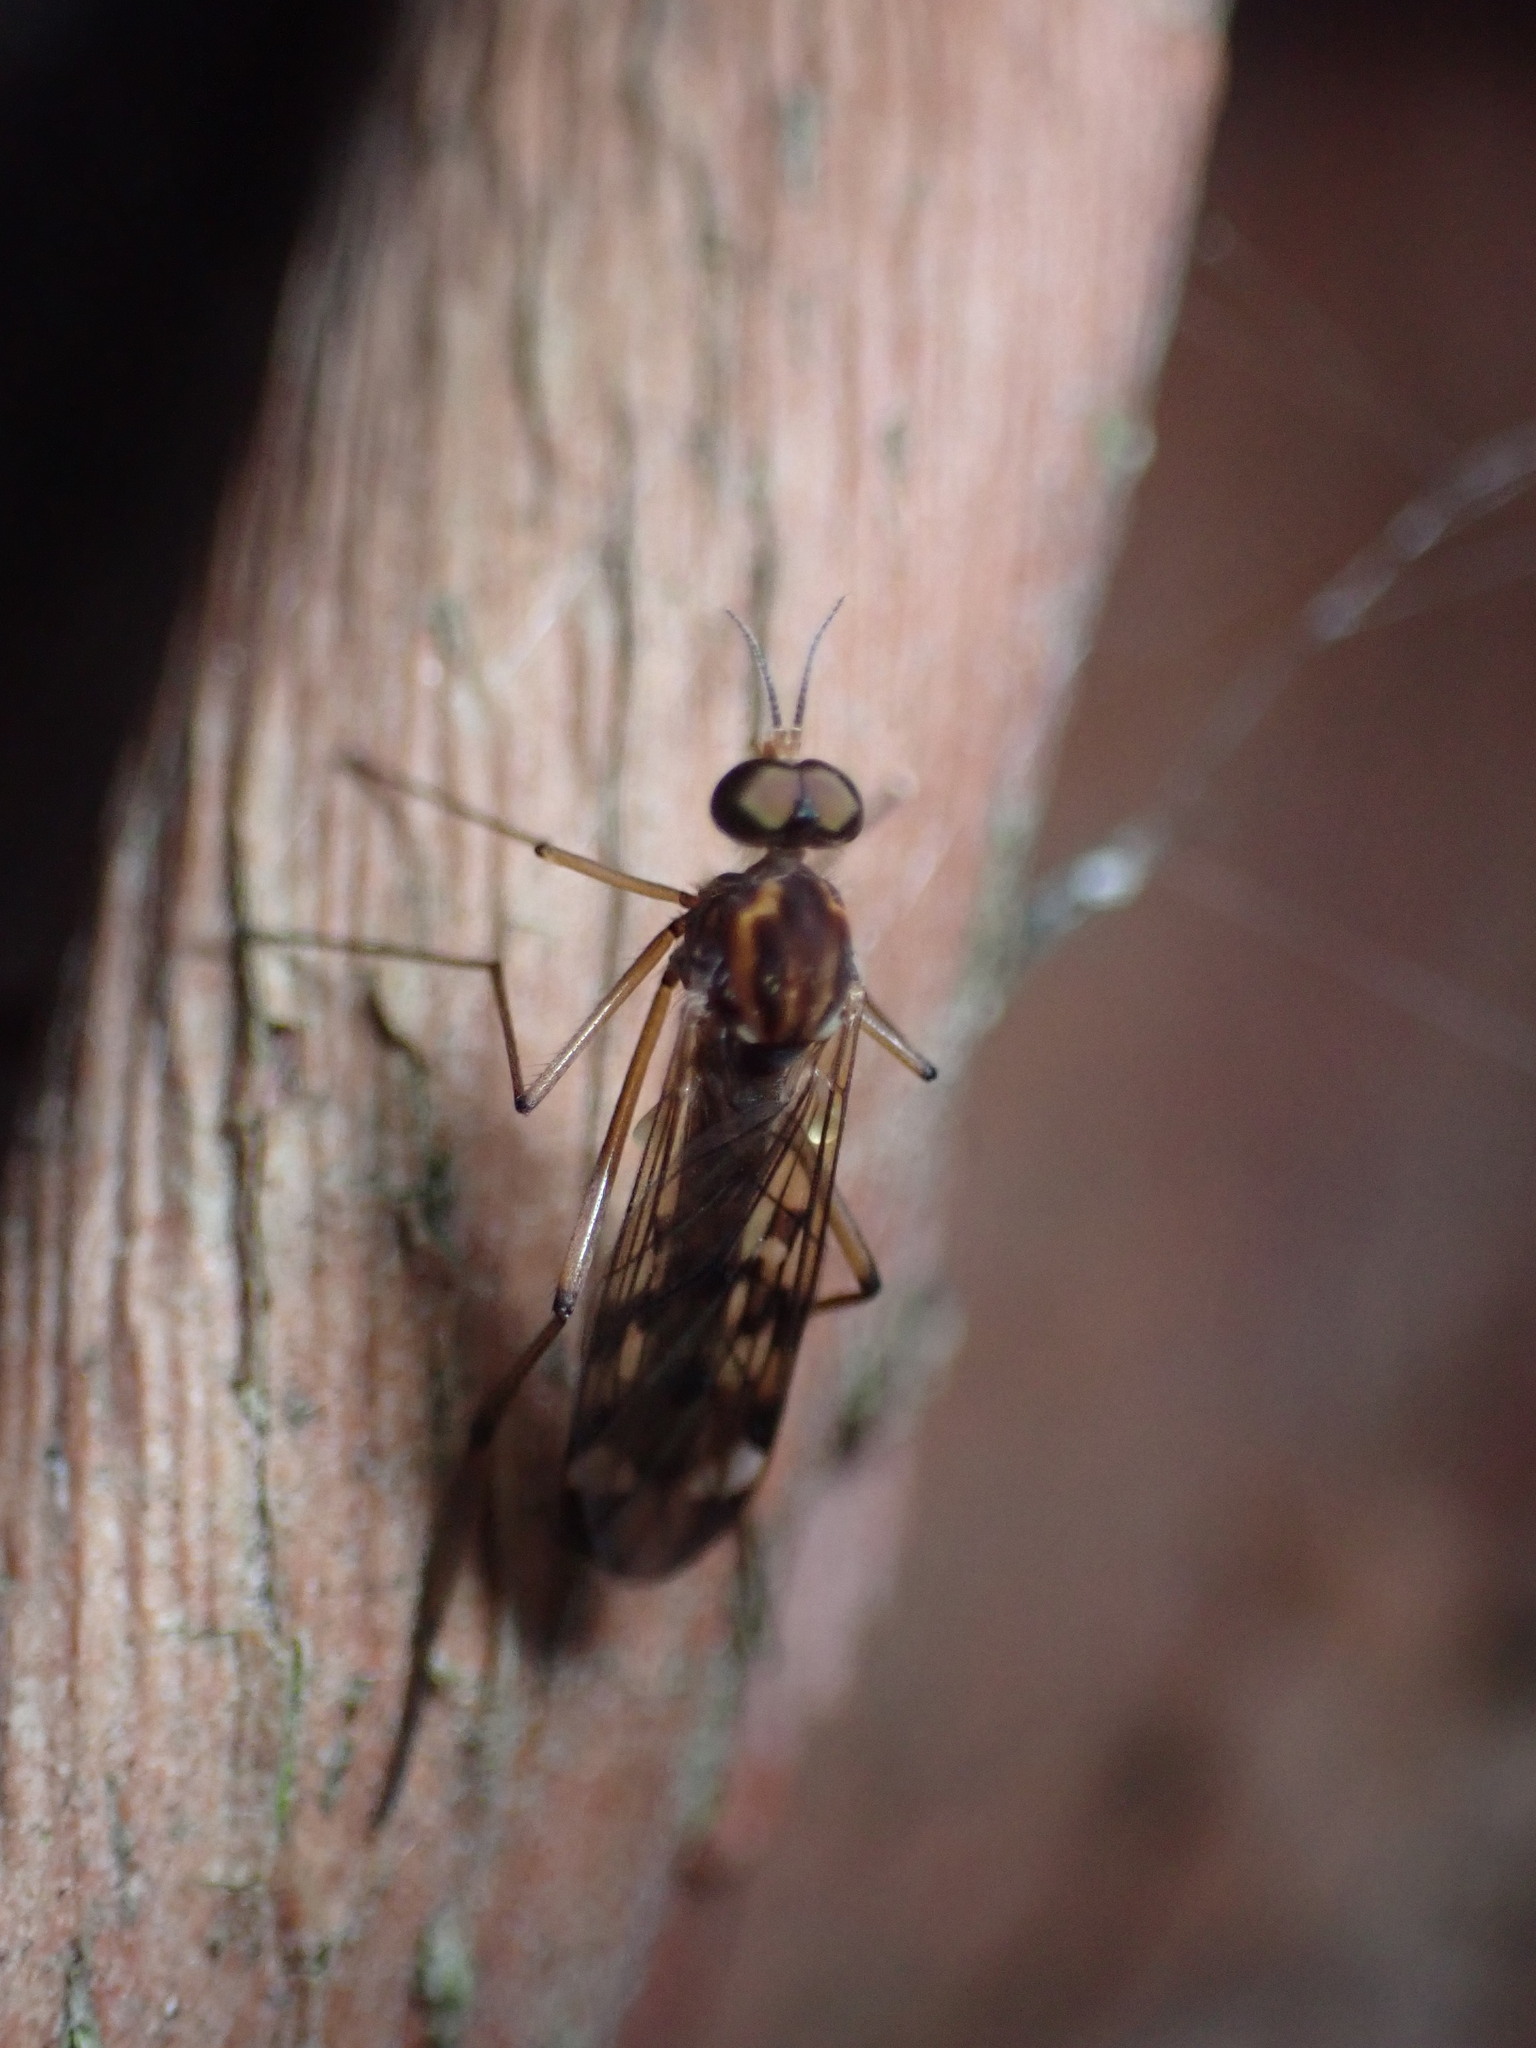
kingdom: Animalia
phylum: Arthropoda
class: Insecta
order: Diptera
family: Anisopodidae
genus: Sylvicola
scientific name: Sylvicola notatus
